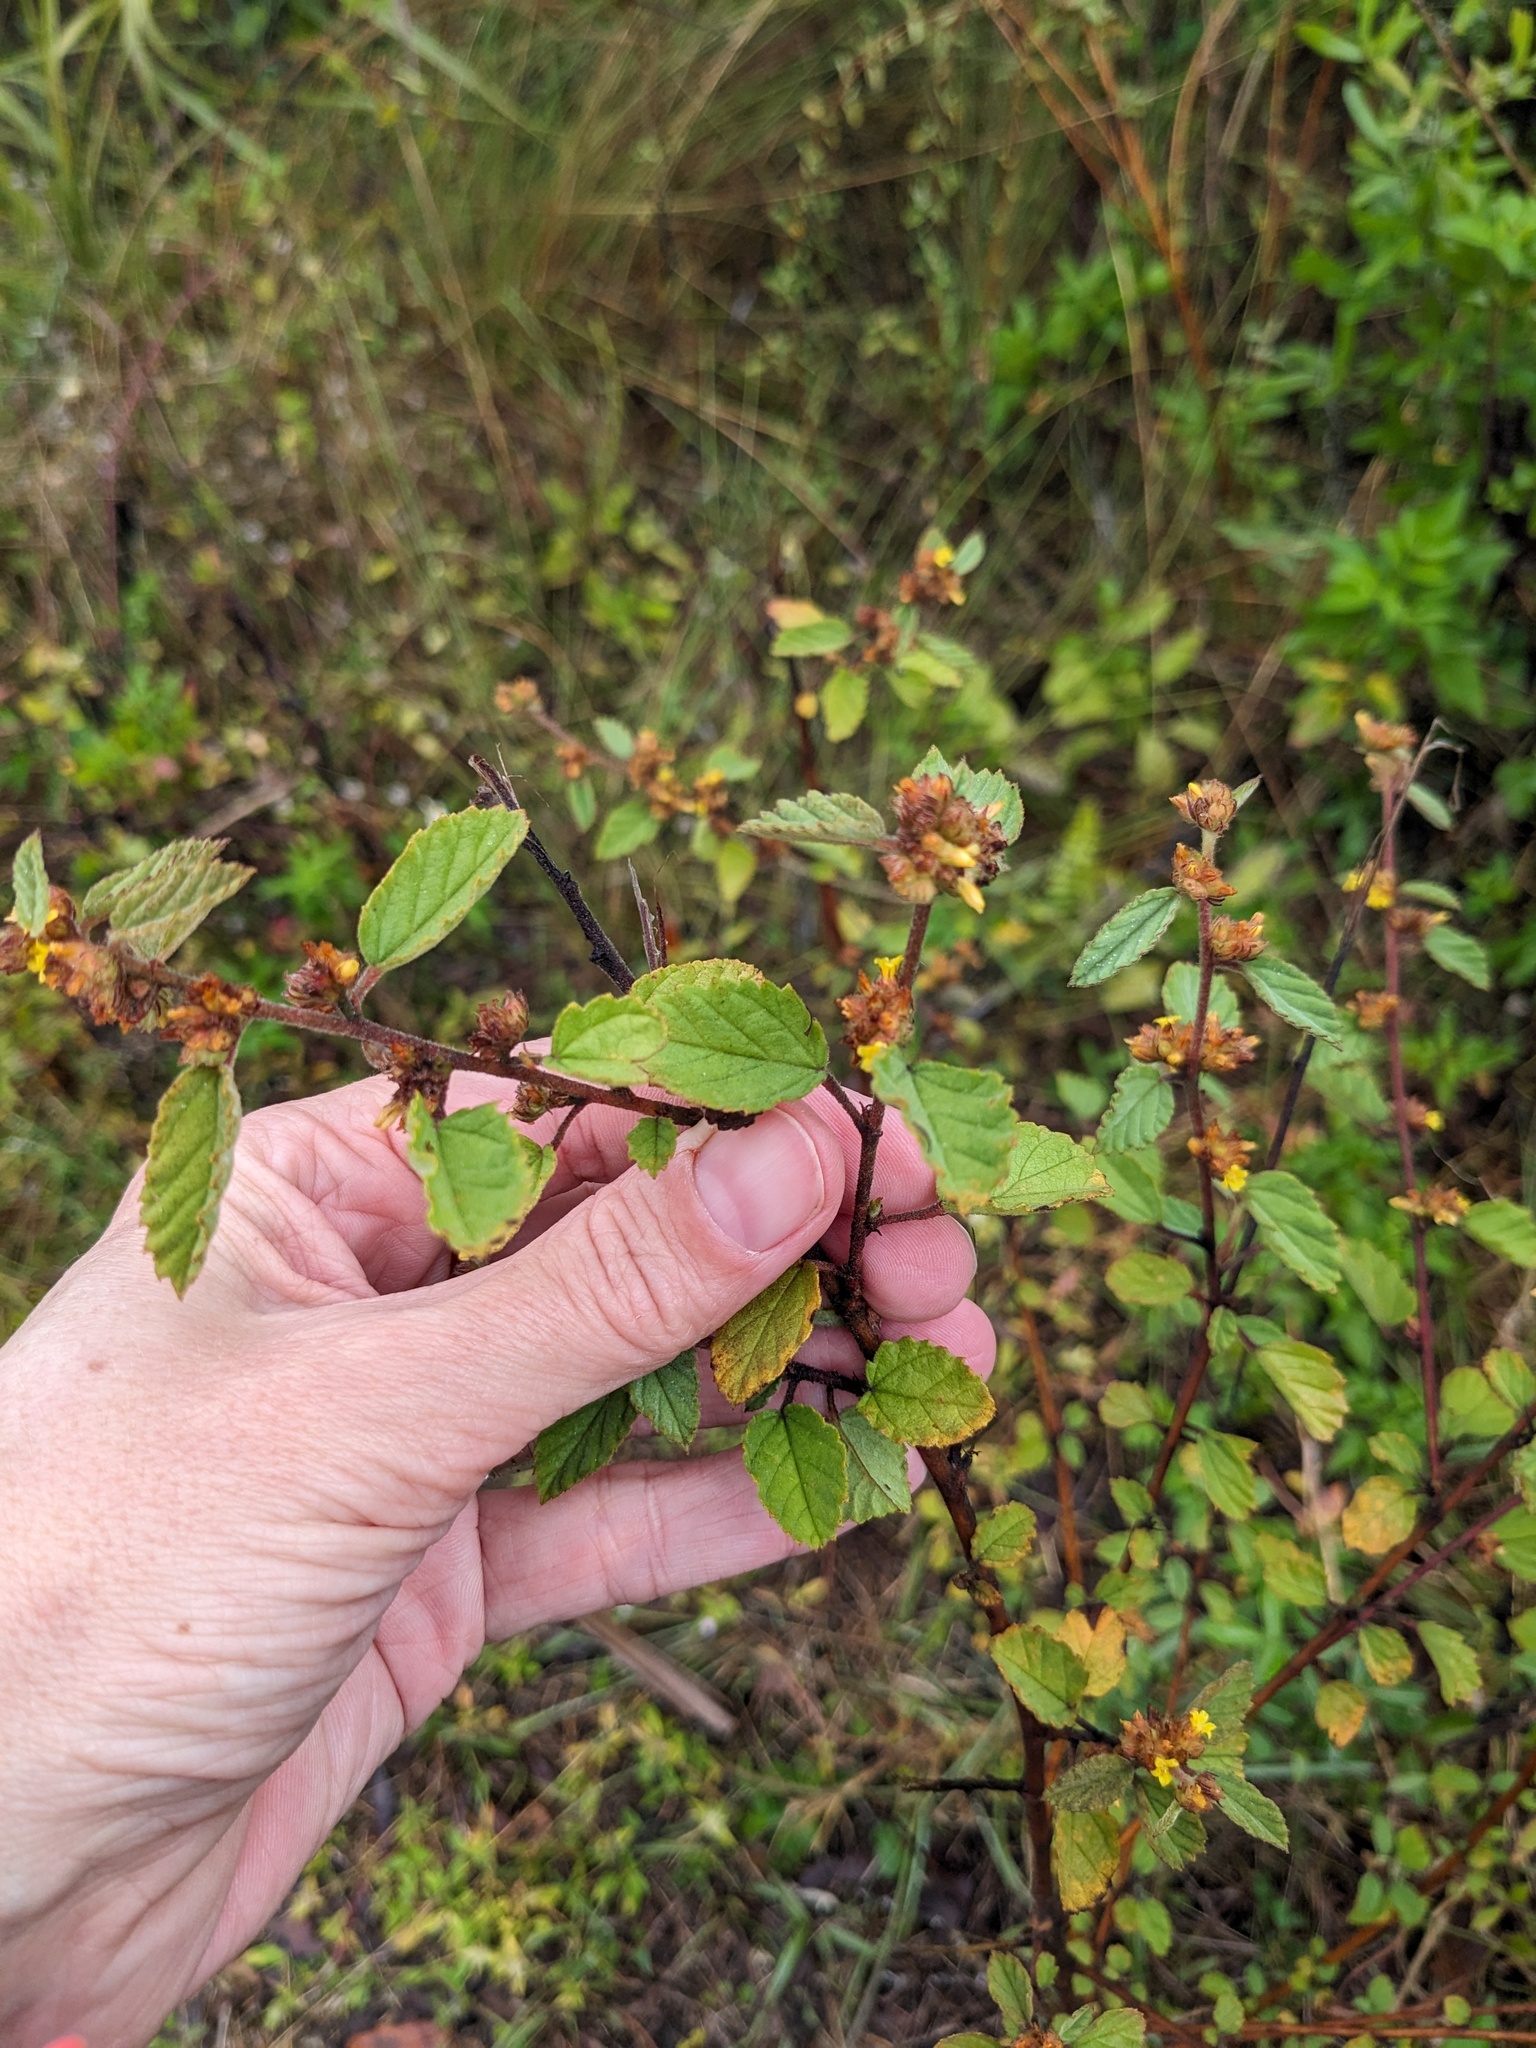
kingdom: Plantae
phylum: Tracheophyta
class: Magnoliopsida
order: Malvales
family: Malvaceae
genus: Waltheria
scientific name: Waltheria indica
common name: Leather-coat
